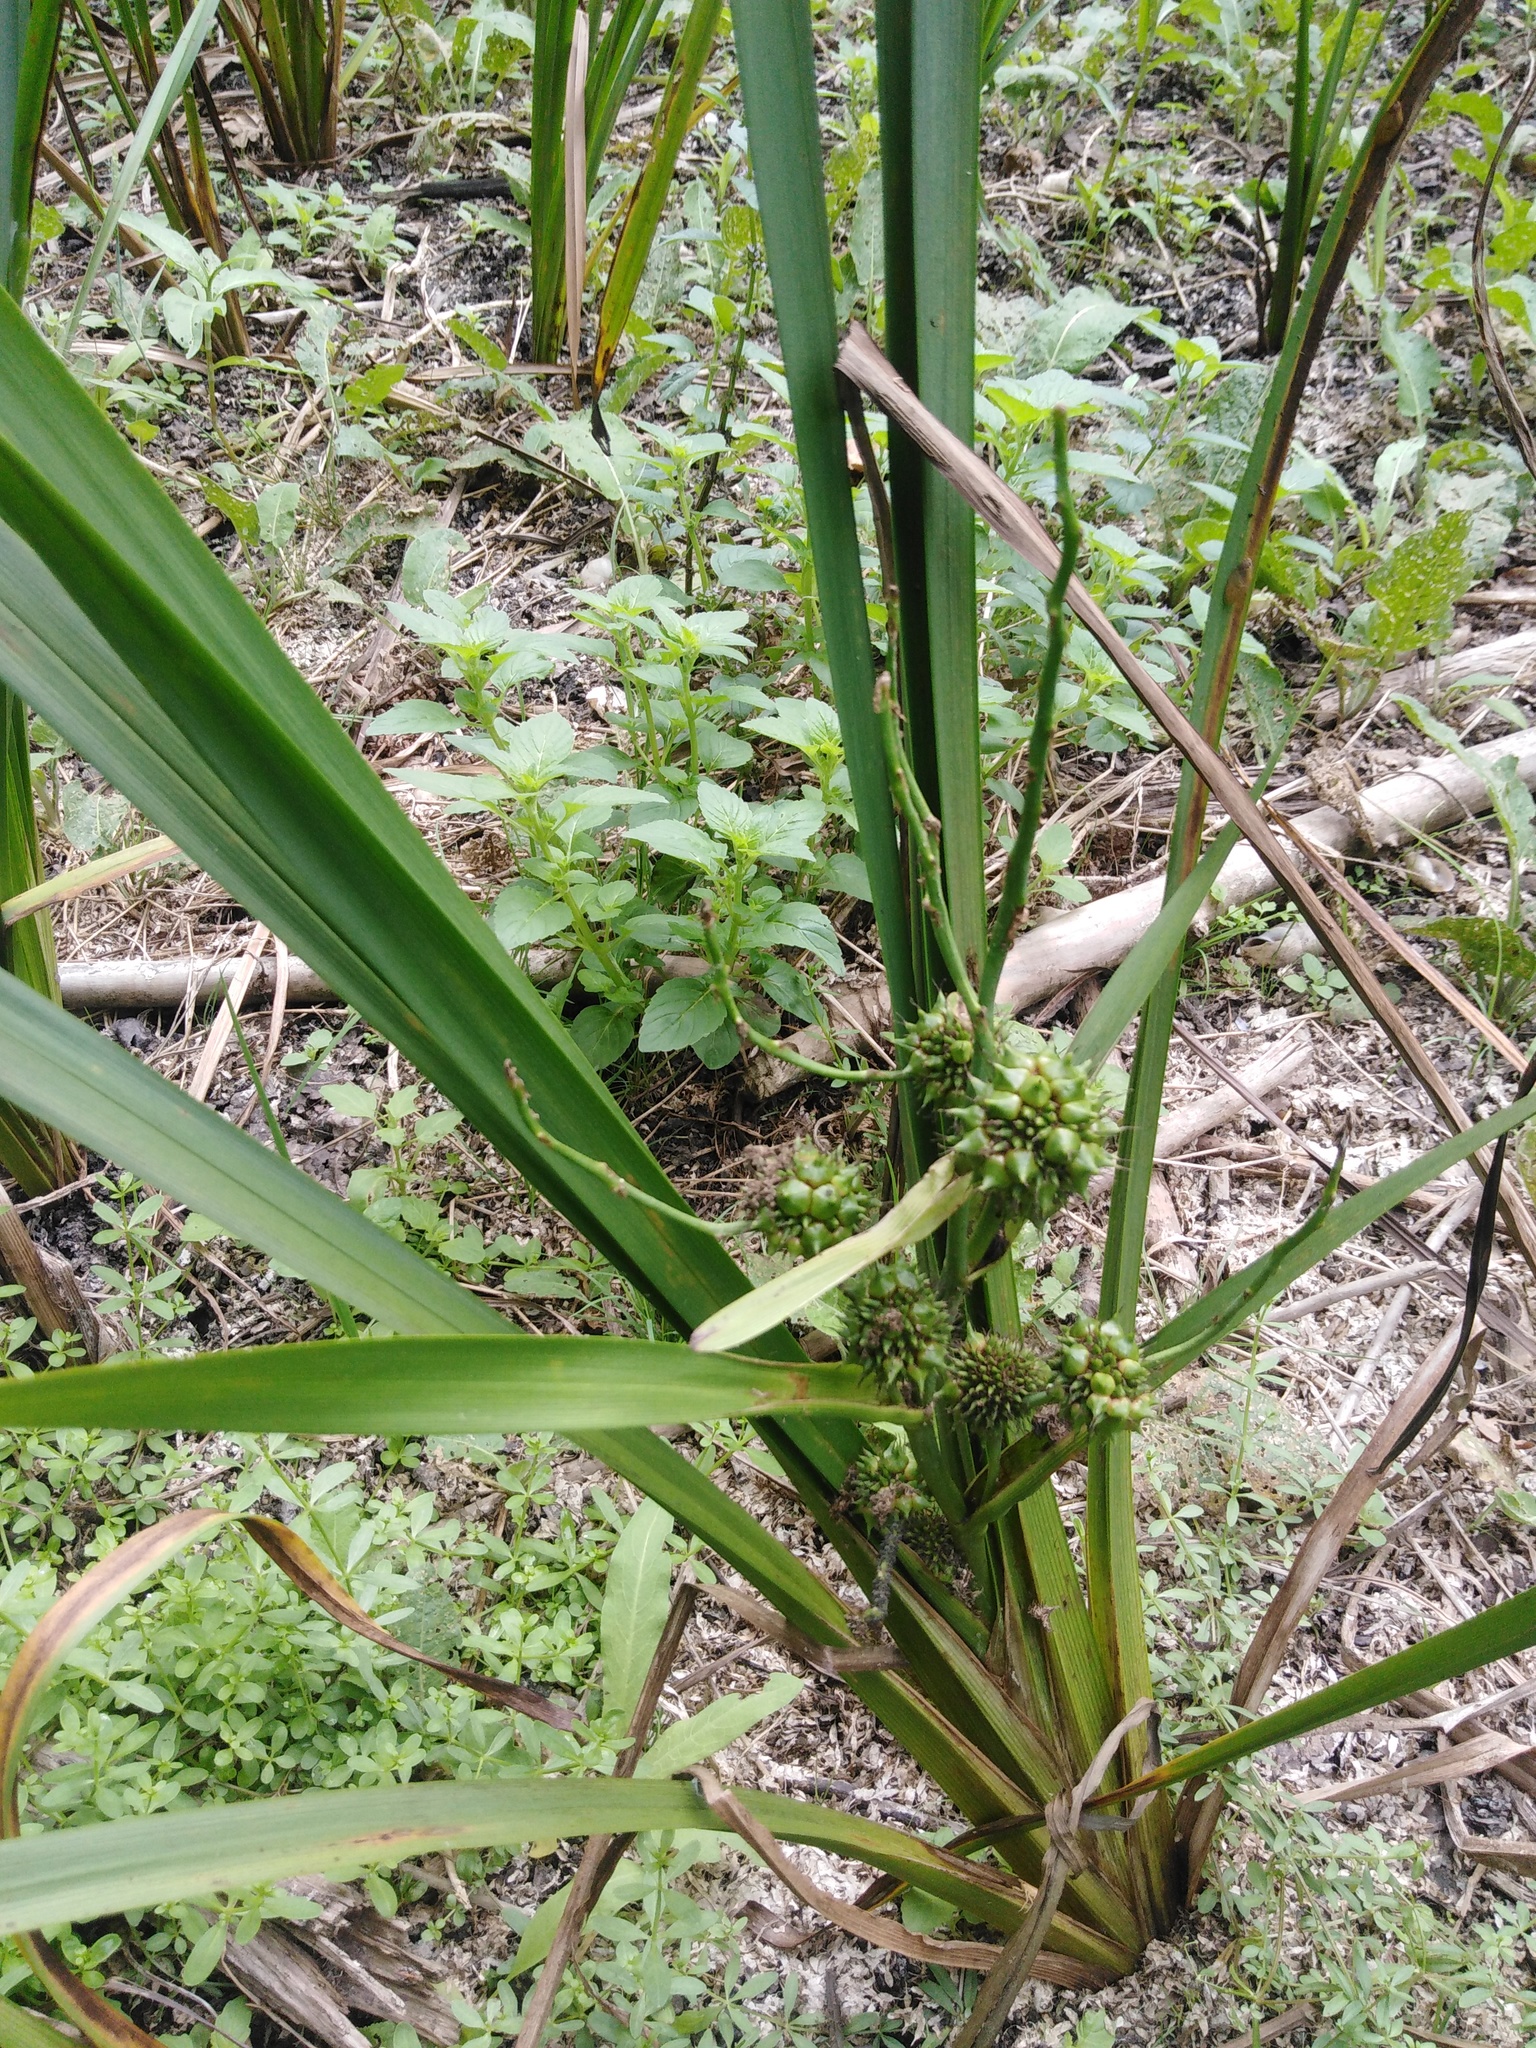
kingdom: Plantae
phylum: Tracheophyta
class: Liliopsida
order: Poales
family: Typhaceae
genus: Sparganium
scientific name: Sparganium erectum
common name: Branched bur-reed
